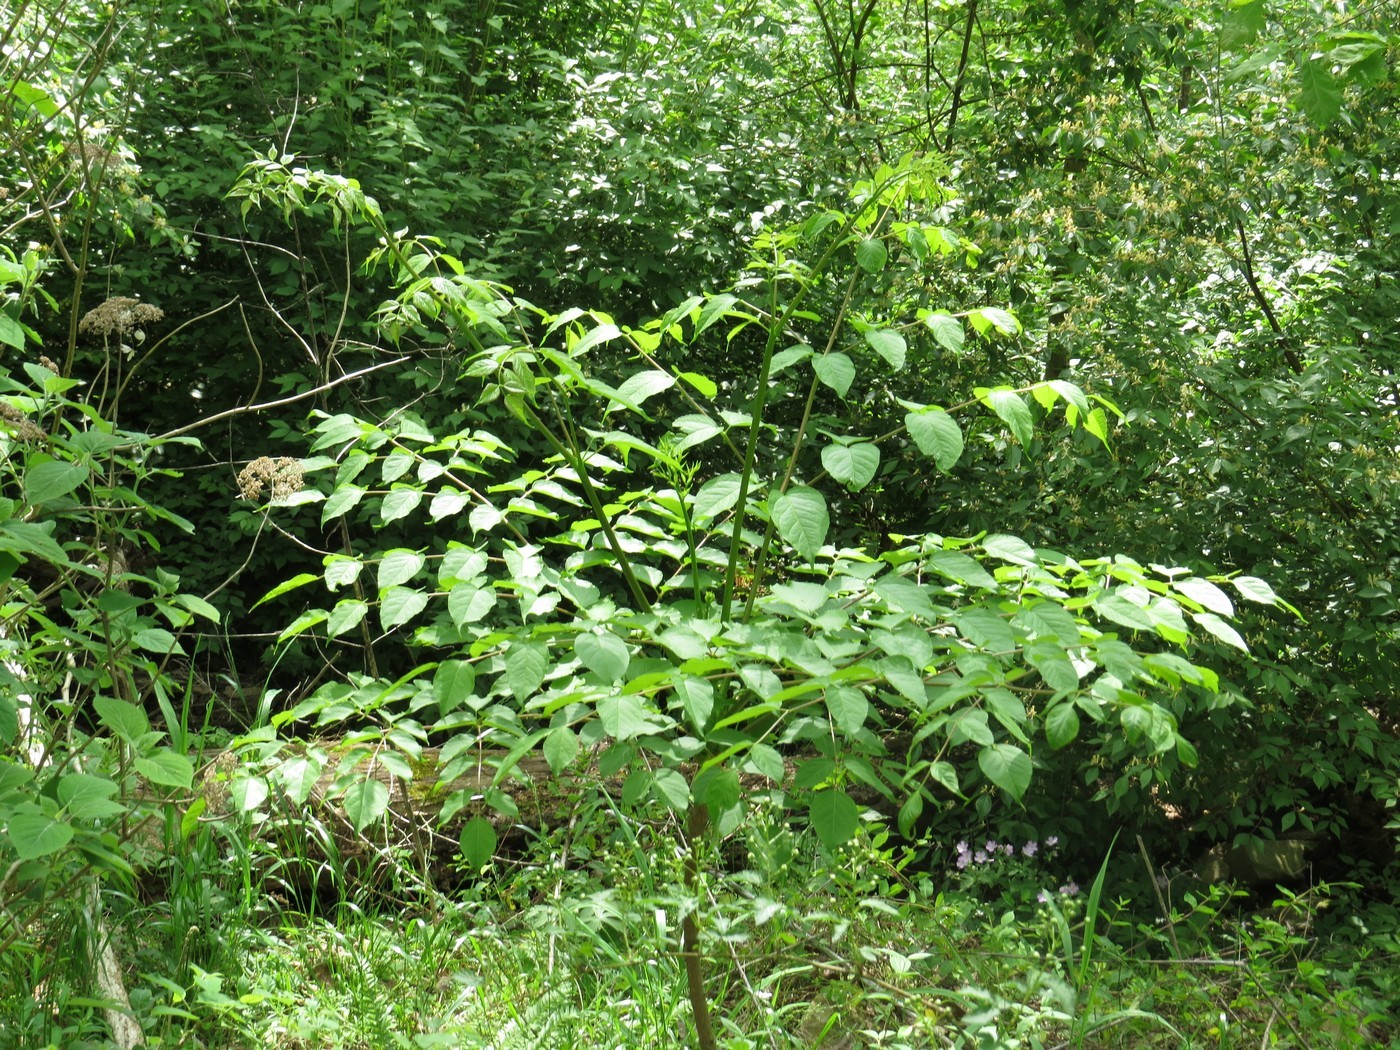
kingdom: Plantae
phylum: Tracheophyta
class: Magnoliopsida
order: Apiales
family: Araliaceae
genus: Aralia
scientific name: Aralia spinosa
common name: Hercules'-club
